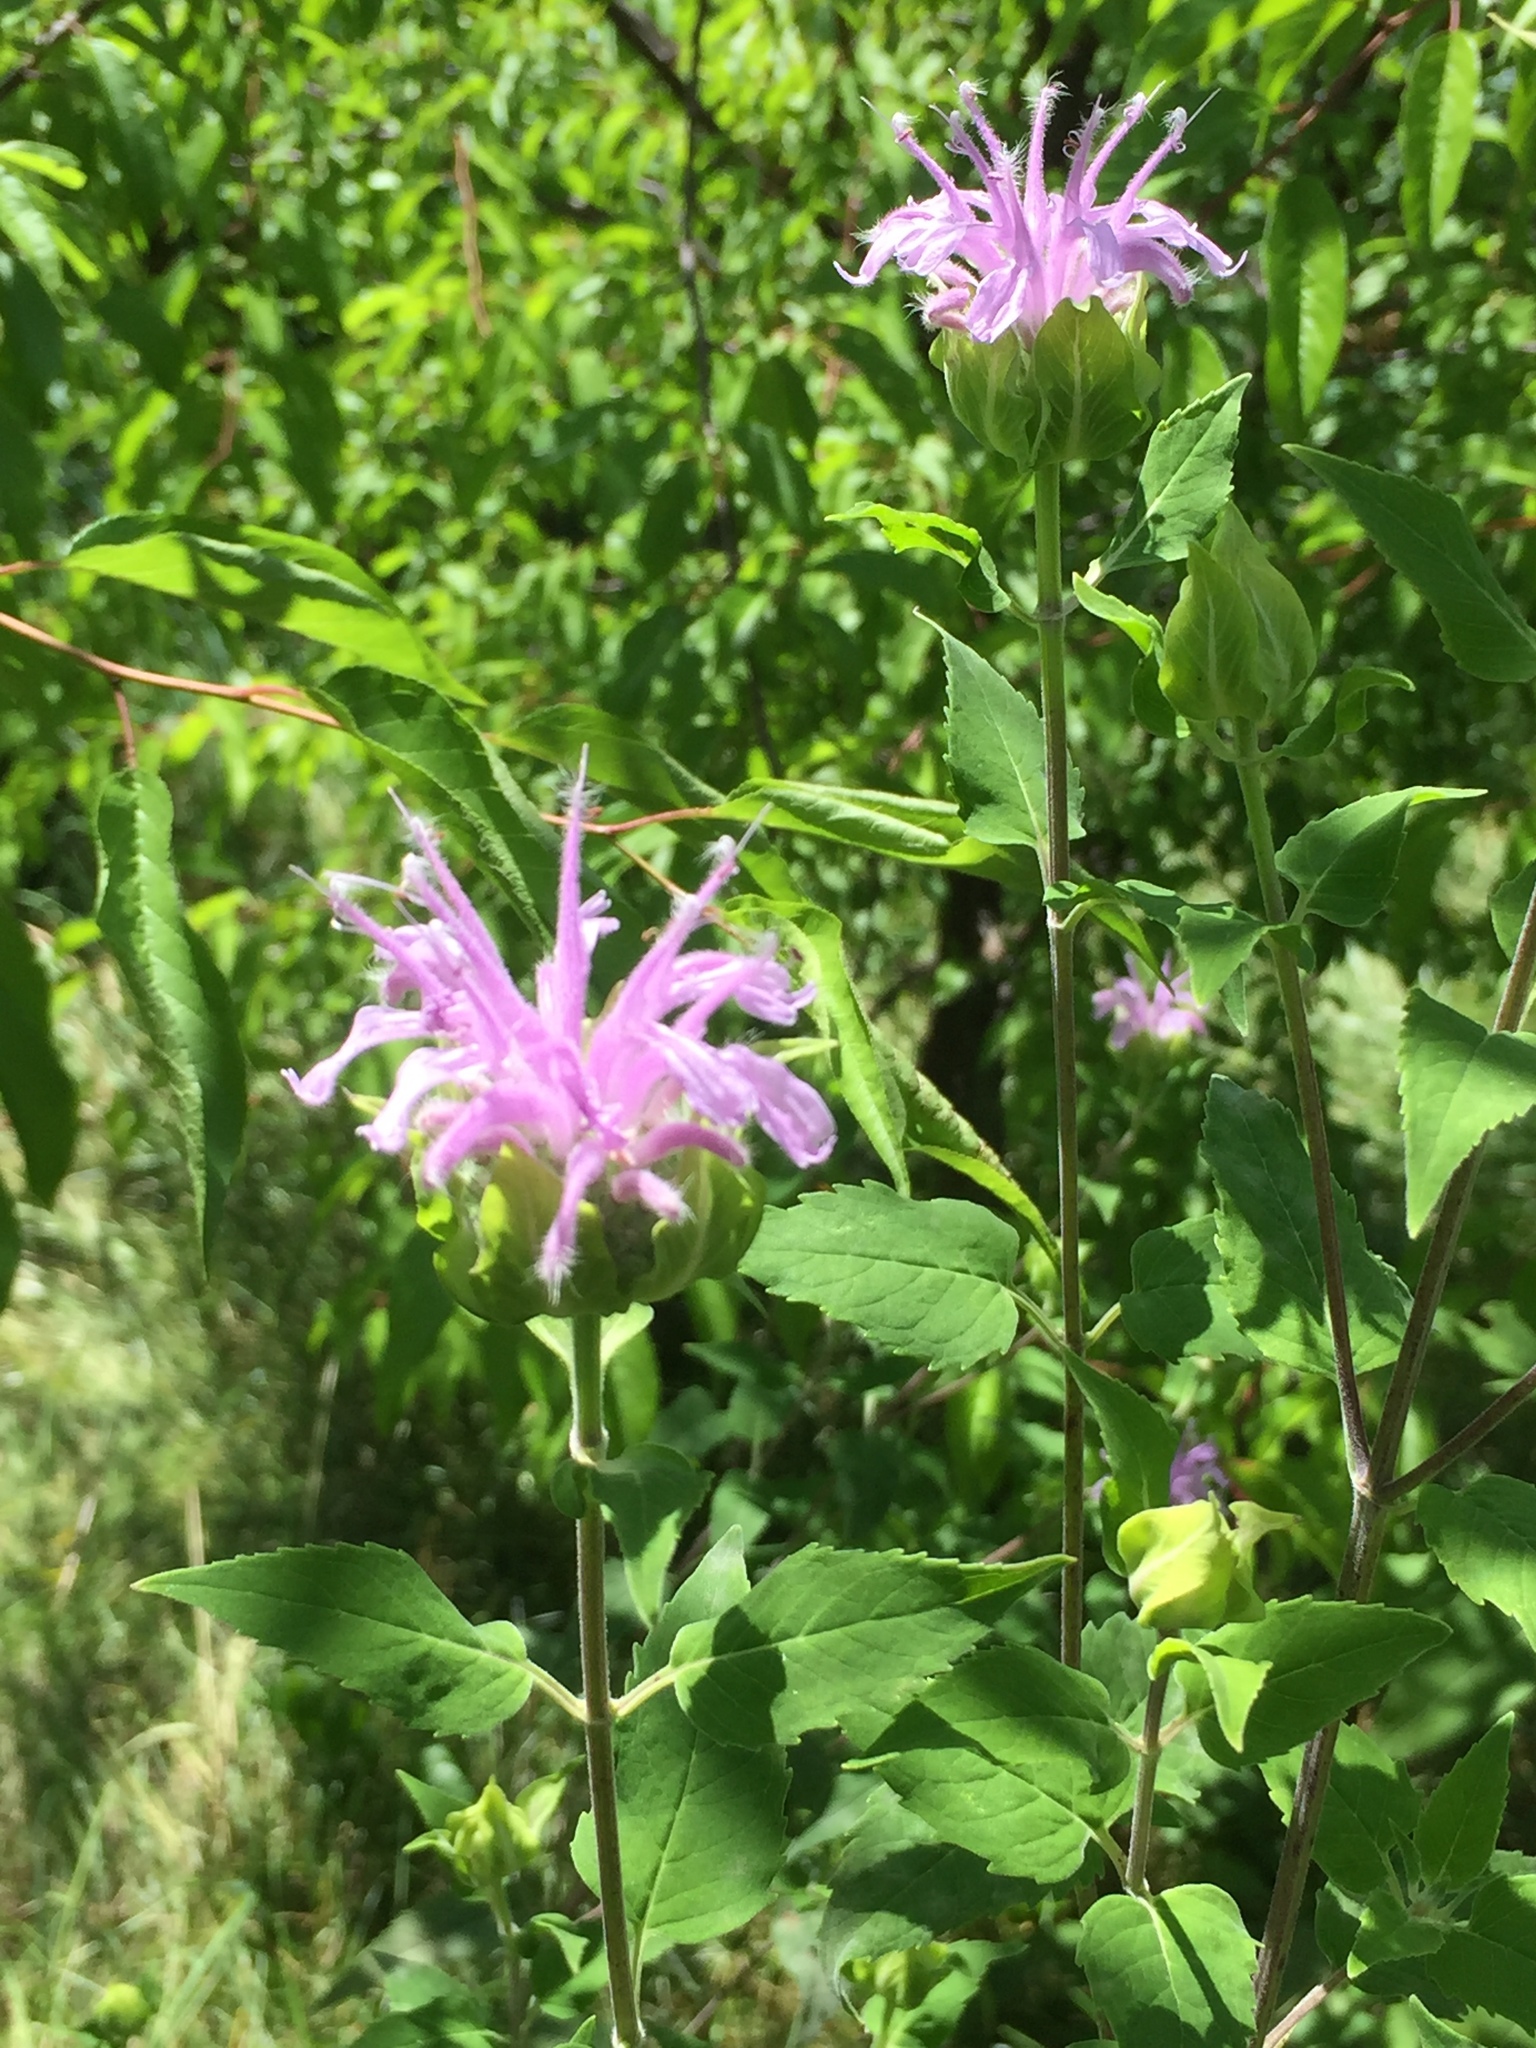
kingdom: Plantae
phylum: Tracheophyta
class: Magnoliopsida
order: Lamiales
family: Lamiaceae
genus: Monarda
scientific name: Monarda fistulosa
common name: Purple beebalm
